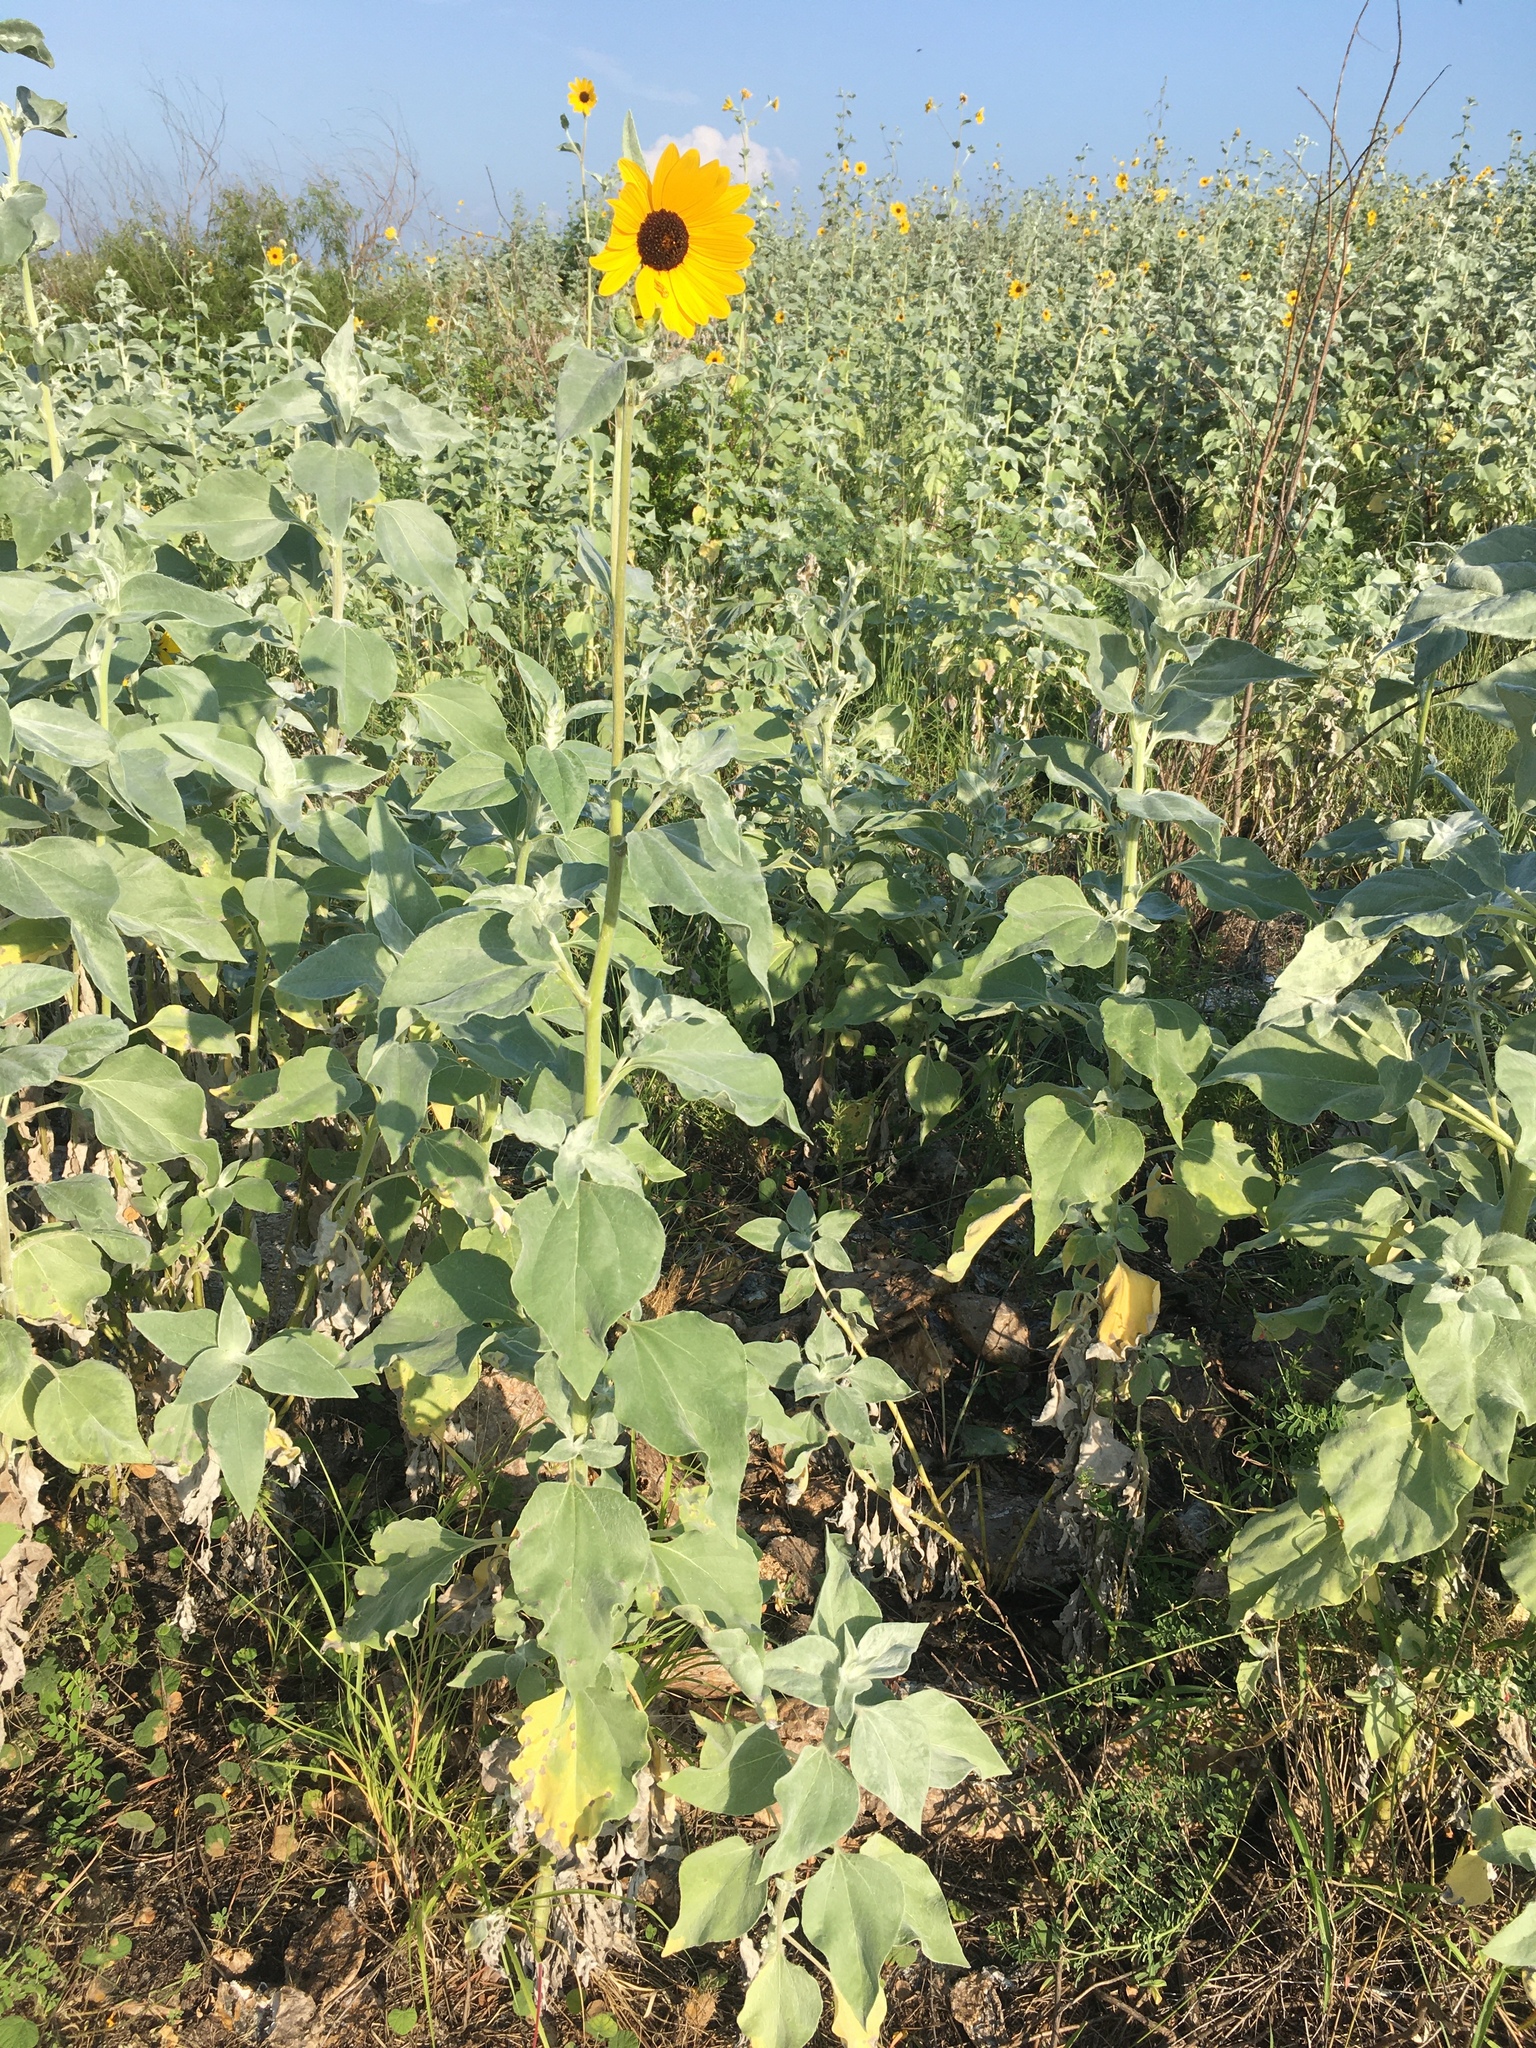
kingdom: Plantae
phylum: Tracheophyta
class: Magnoliopsida
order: Asterales
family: Asteraceae
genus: Helianthus
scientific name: Helianthus argophyllus
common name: Silverleaf sunflower
